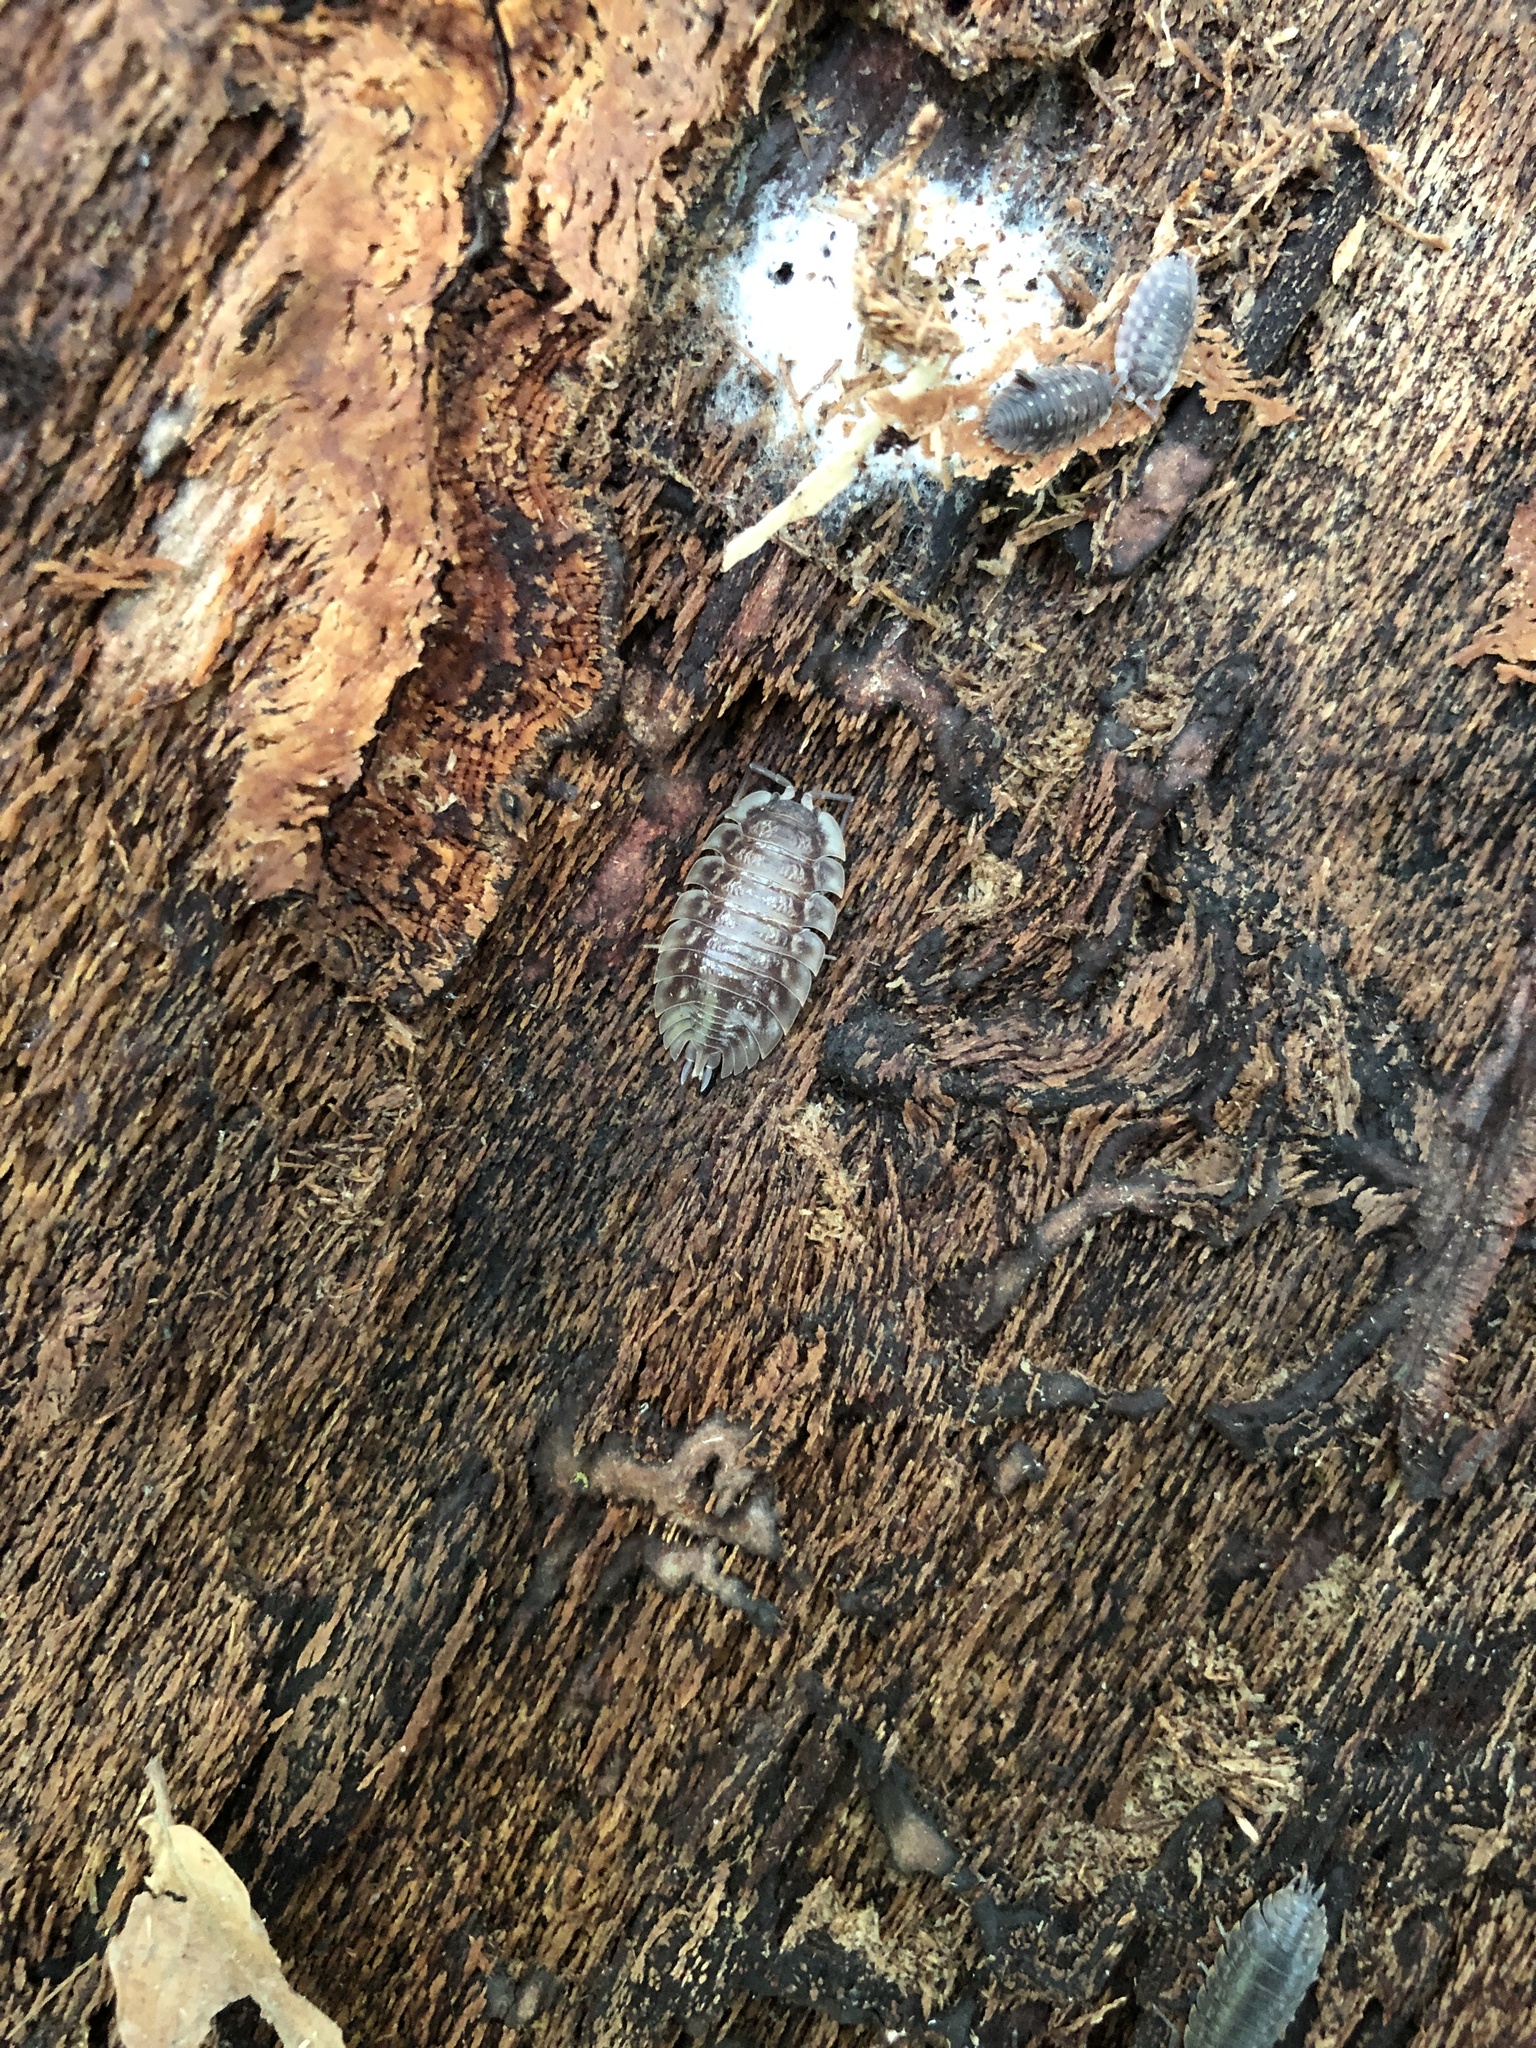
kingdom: Animalia
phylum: Arthropoda
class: Malacostraca
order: Isopoda
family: Oniscidae
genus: Oniscus
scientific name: Oniscus asellus
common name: Common shiny woodlouse
